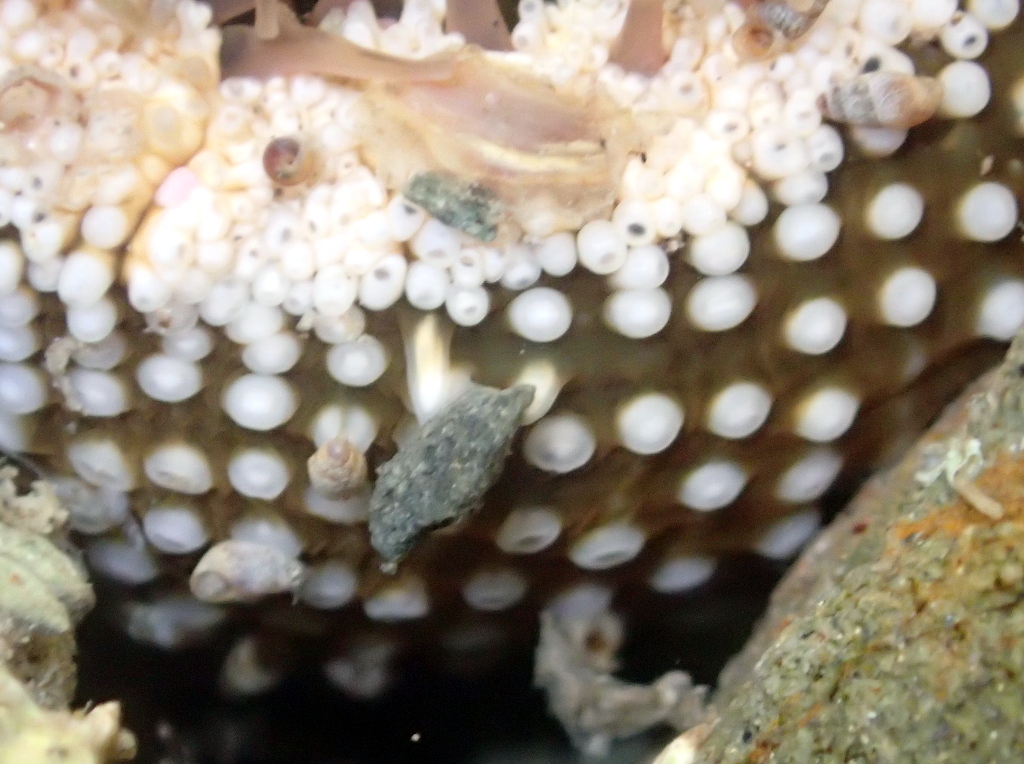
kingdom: Animalia
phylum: Cnidaria
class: Anthozoa
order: Actiniaria
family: Actiniidae
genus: Oulactis
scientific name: Oulactis muscosa
